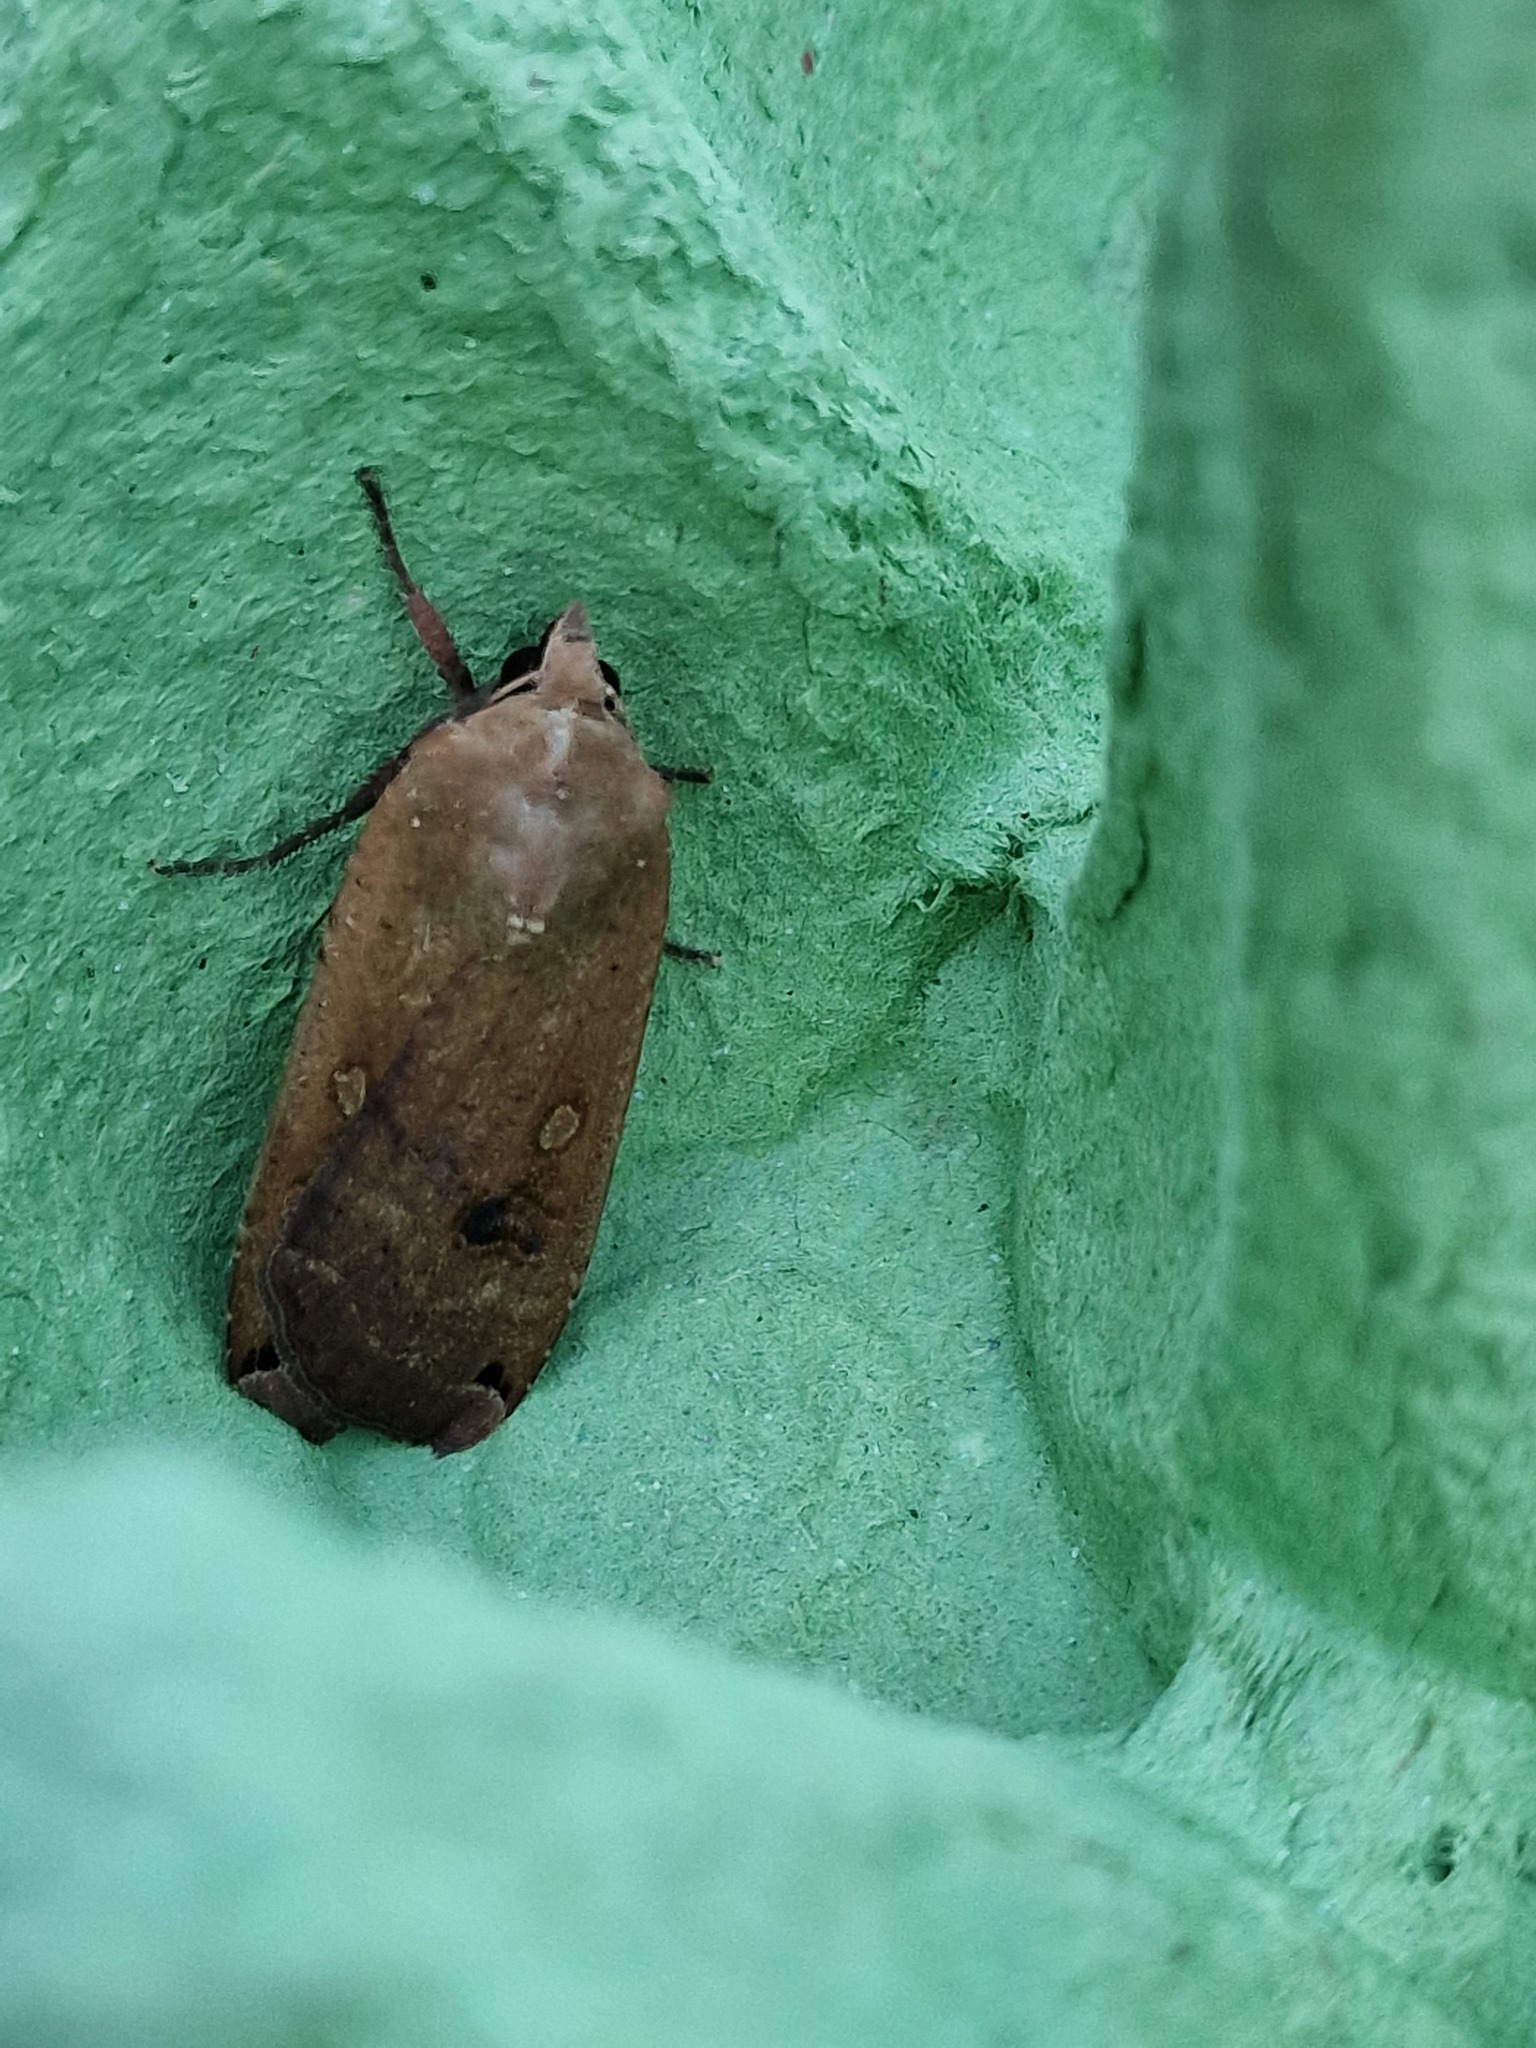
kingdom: Animalia
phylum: Arthropoda
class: Insecta
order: Lepidoptera
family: Noctuidae
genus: Noctua
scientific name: Noctua pronuba
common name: Large yellow underwing
